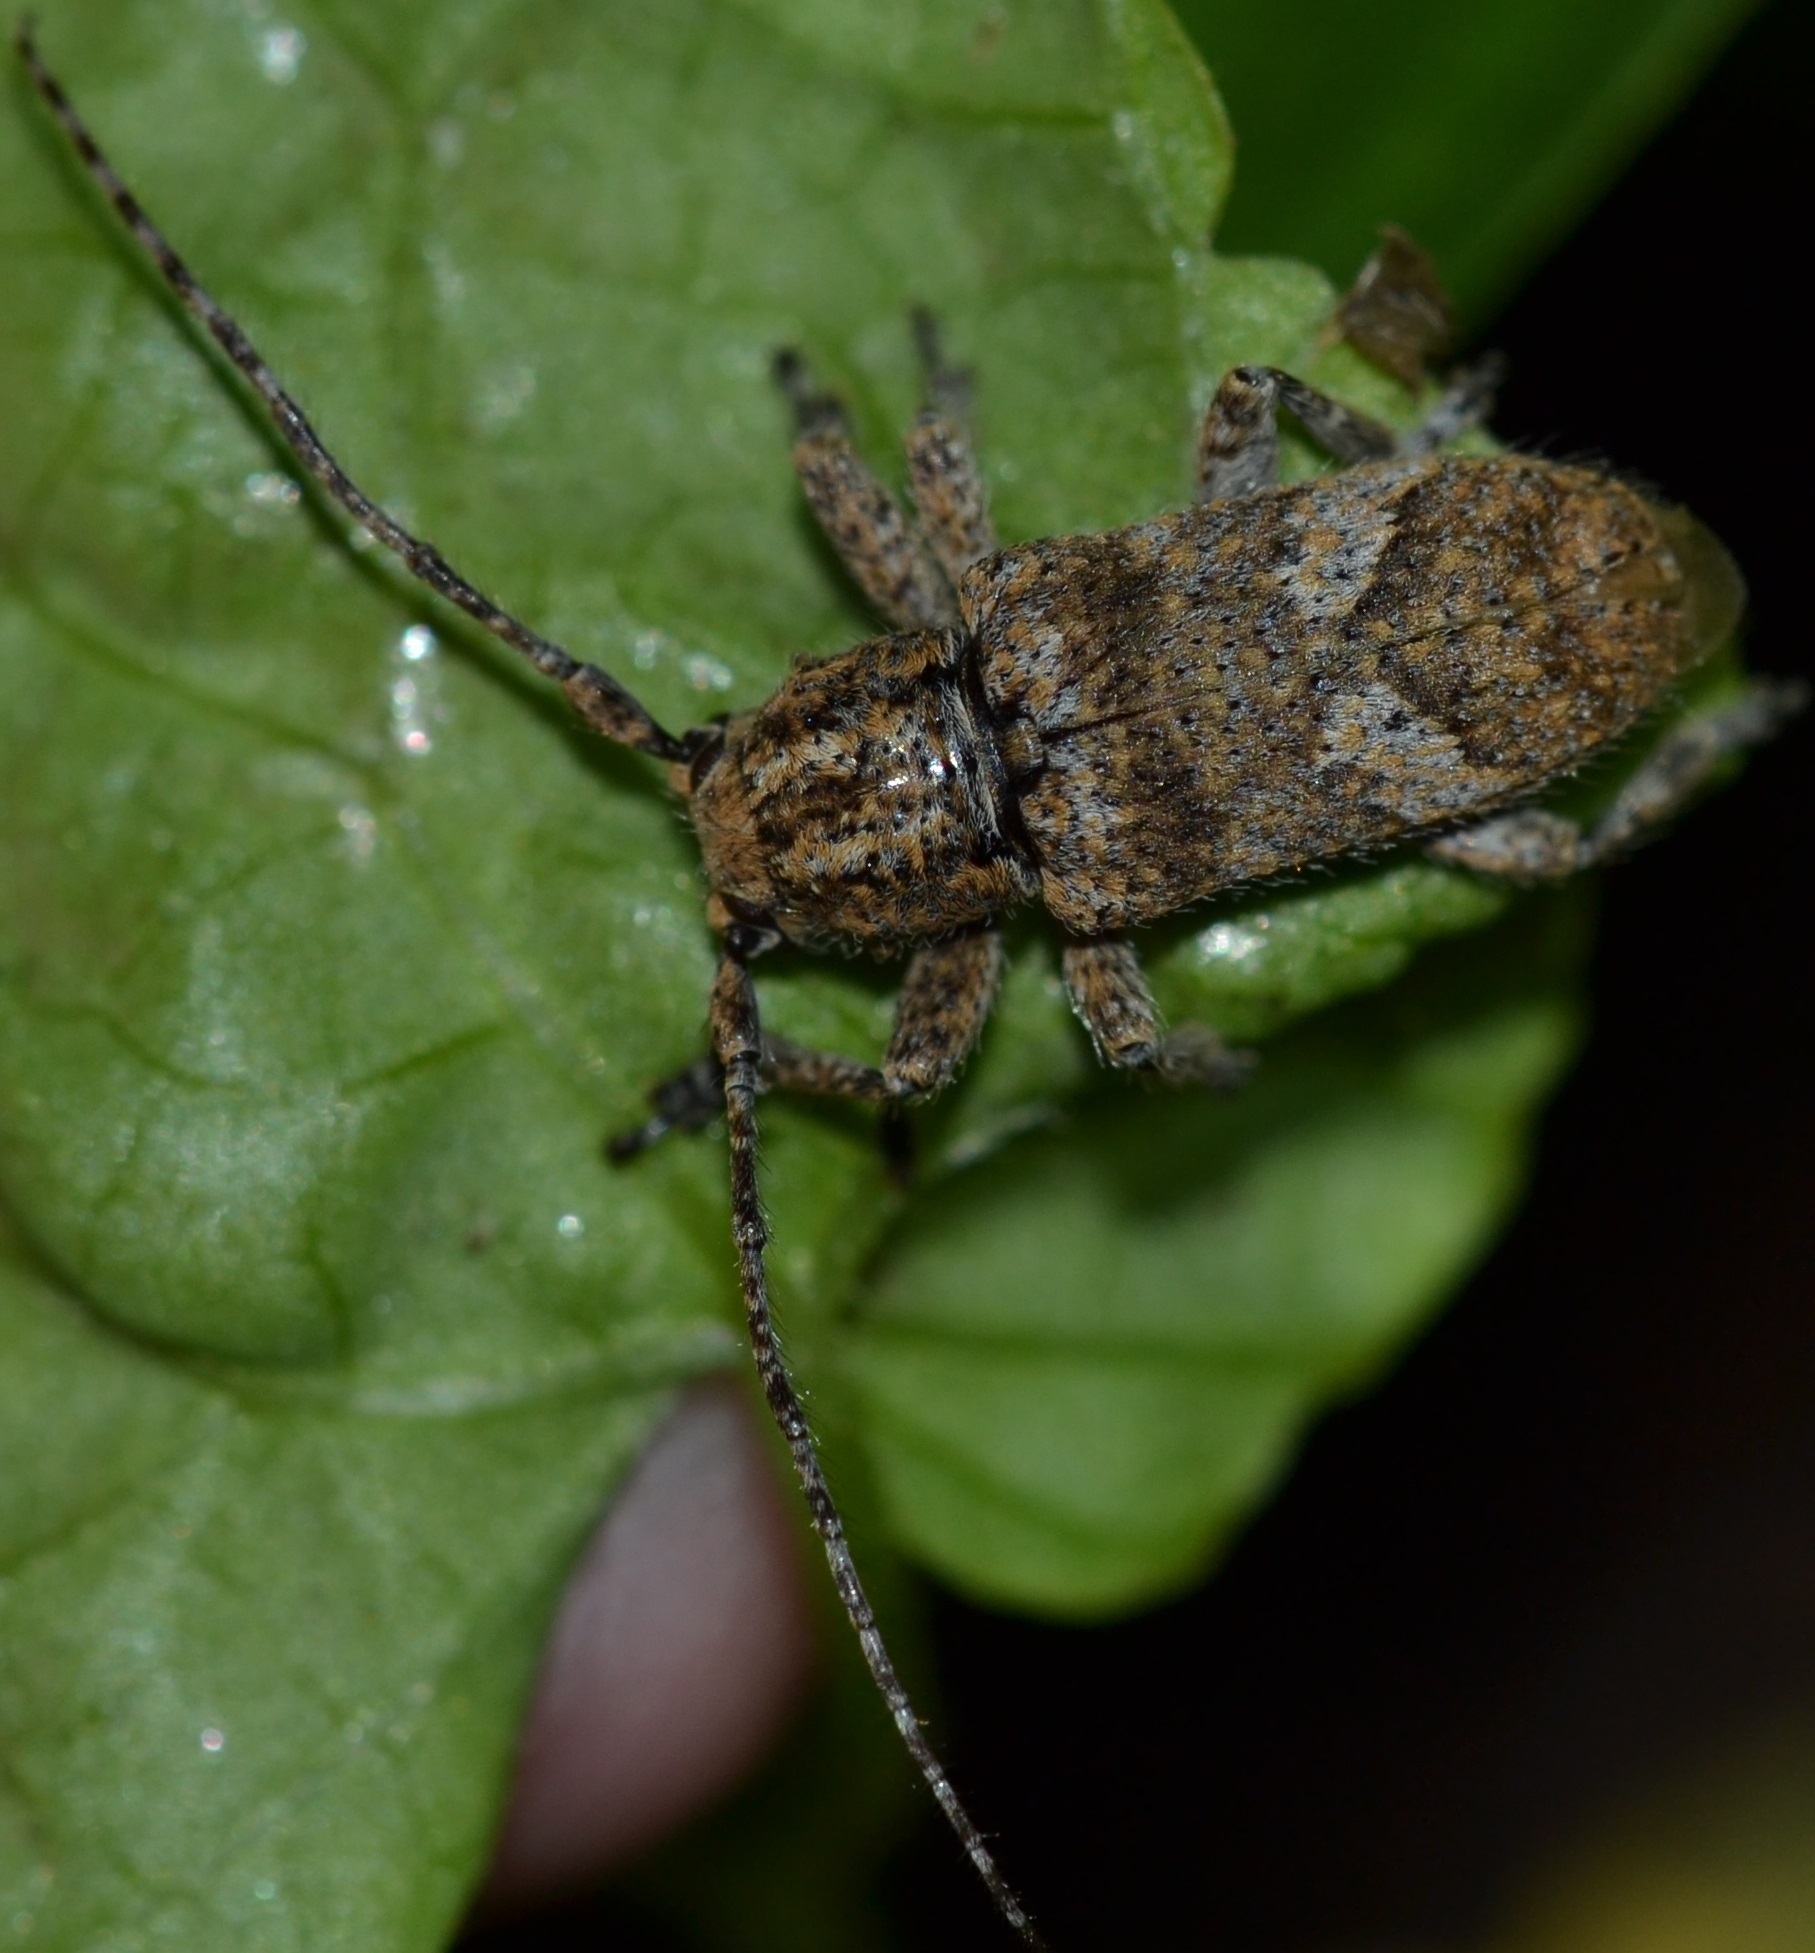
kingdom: Animalia
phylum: Arthropoda
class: Insecta
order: Coleoptera
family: Cerambycidae
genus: Rhytiphora
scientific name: Rhytiphora bankii
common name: Prosoplus long horned beetle
